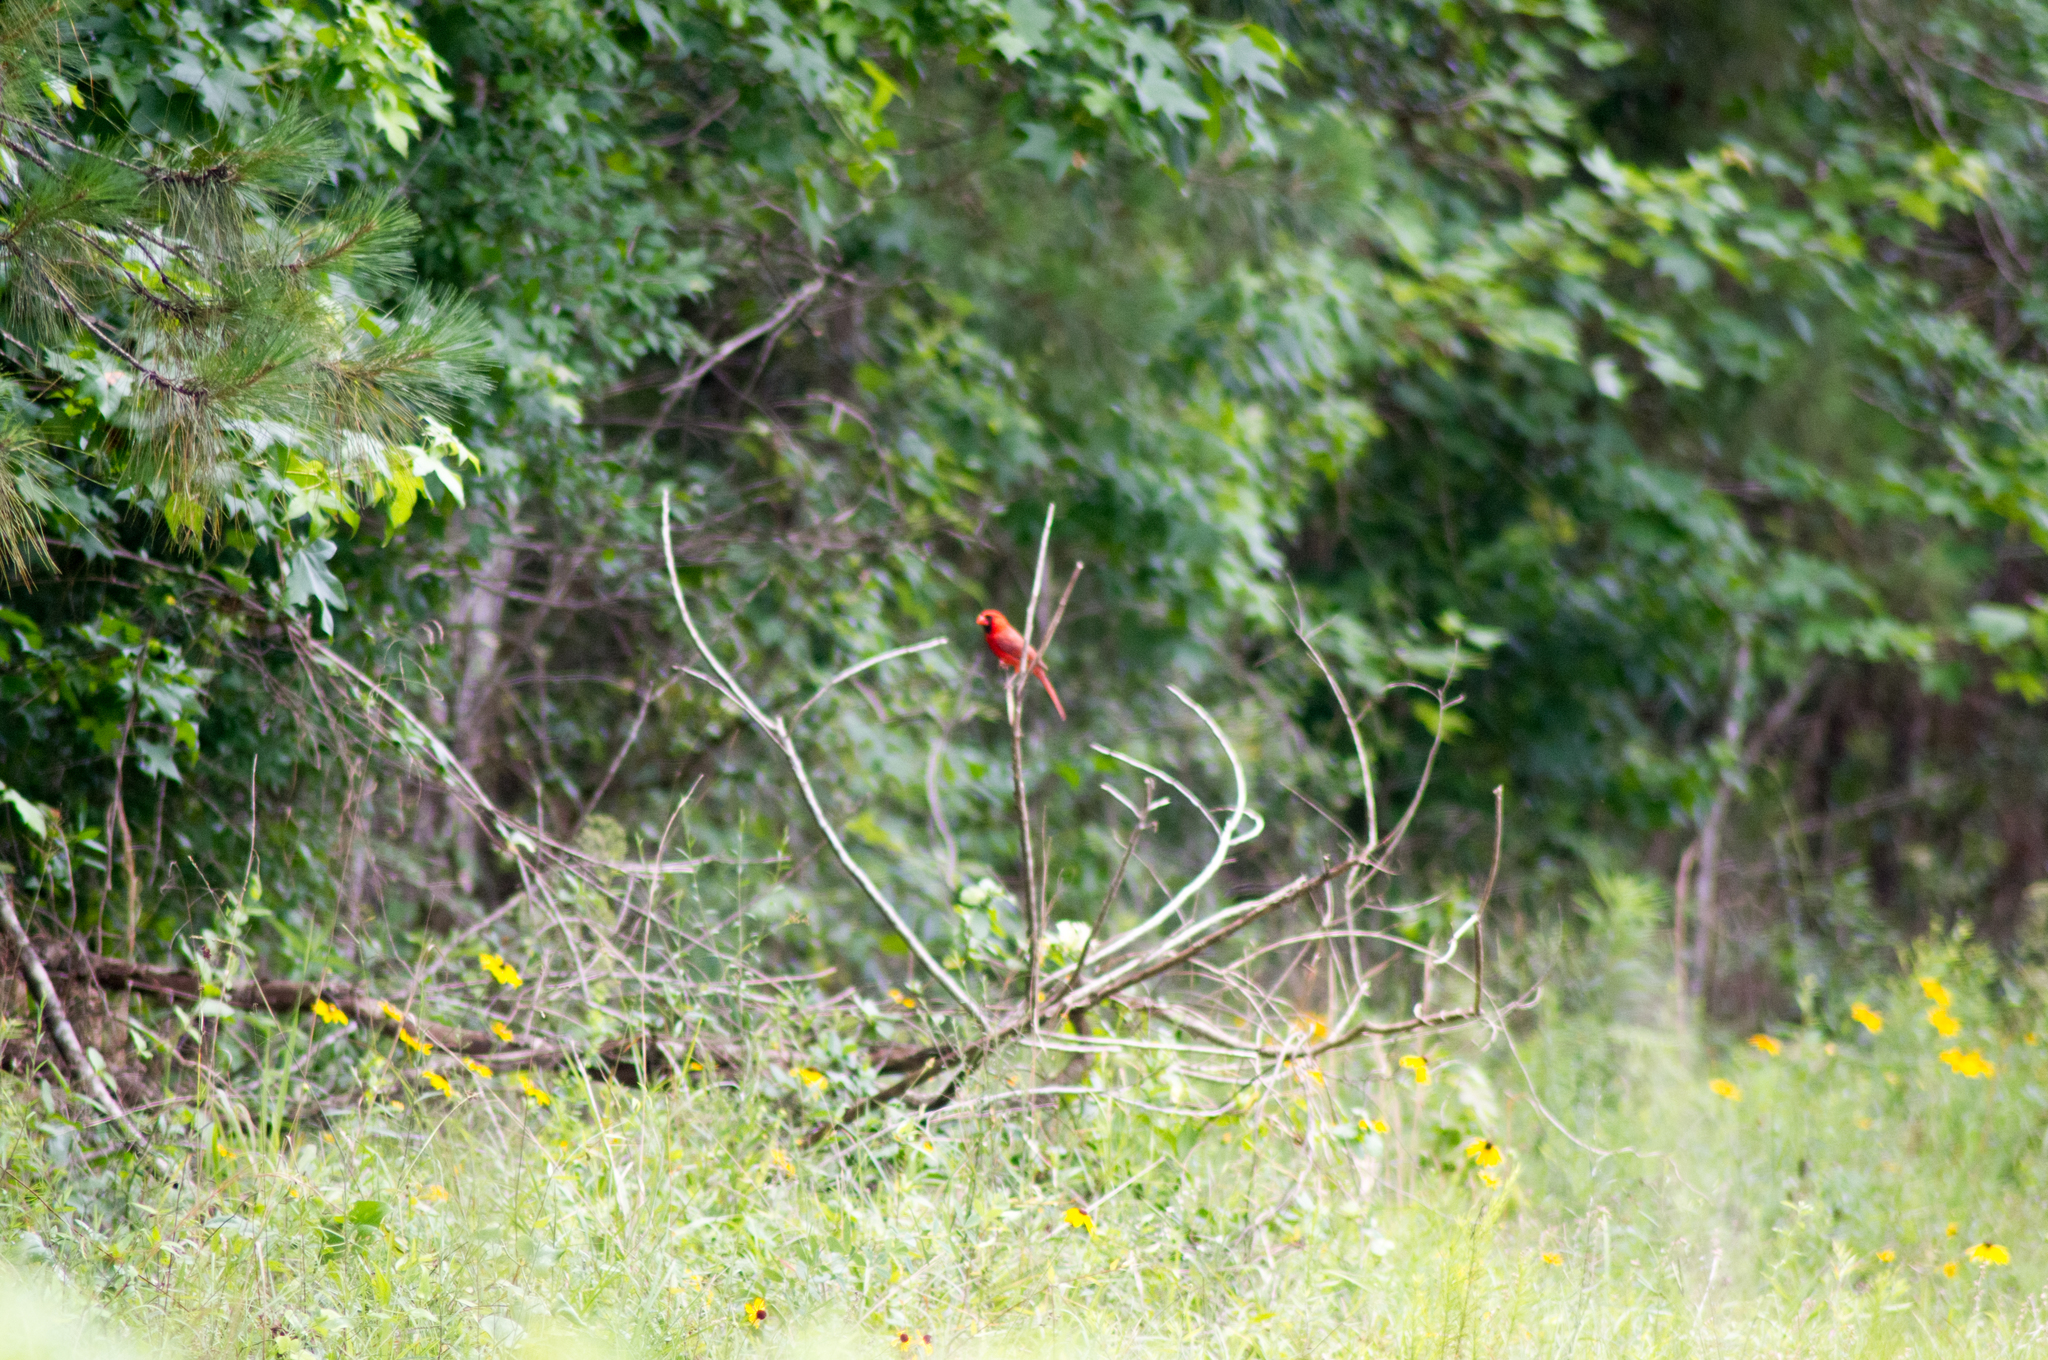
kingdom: Animalia
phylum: Chordata
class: Aves
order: Passeriformes
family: Cardinalidae
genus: Cardinalis
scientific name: Cardinalis cardinalis
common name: Northern cardinal
